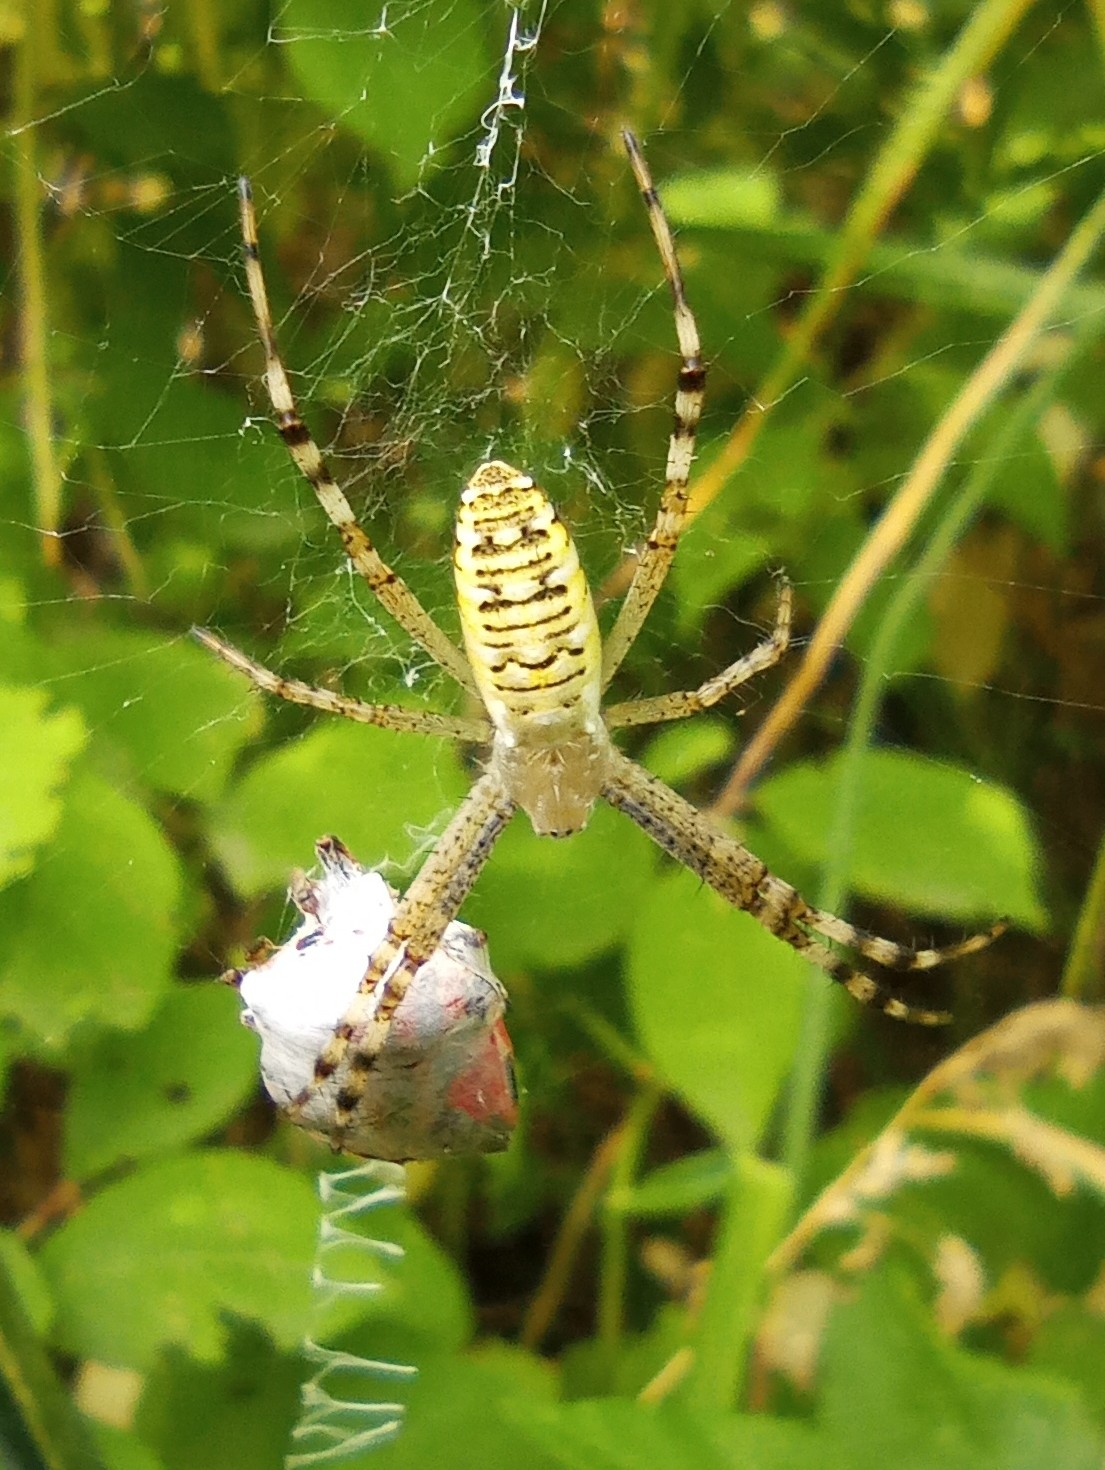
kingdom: Animalia
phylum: Arthropoda
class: Arachnida
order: Araneae
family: Araneidae
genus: Argiope
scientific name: Argiope bruennichi
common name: Wasp spider
